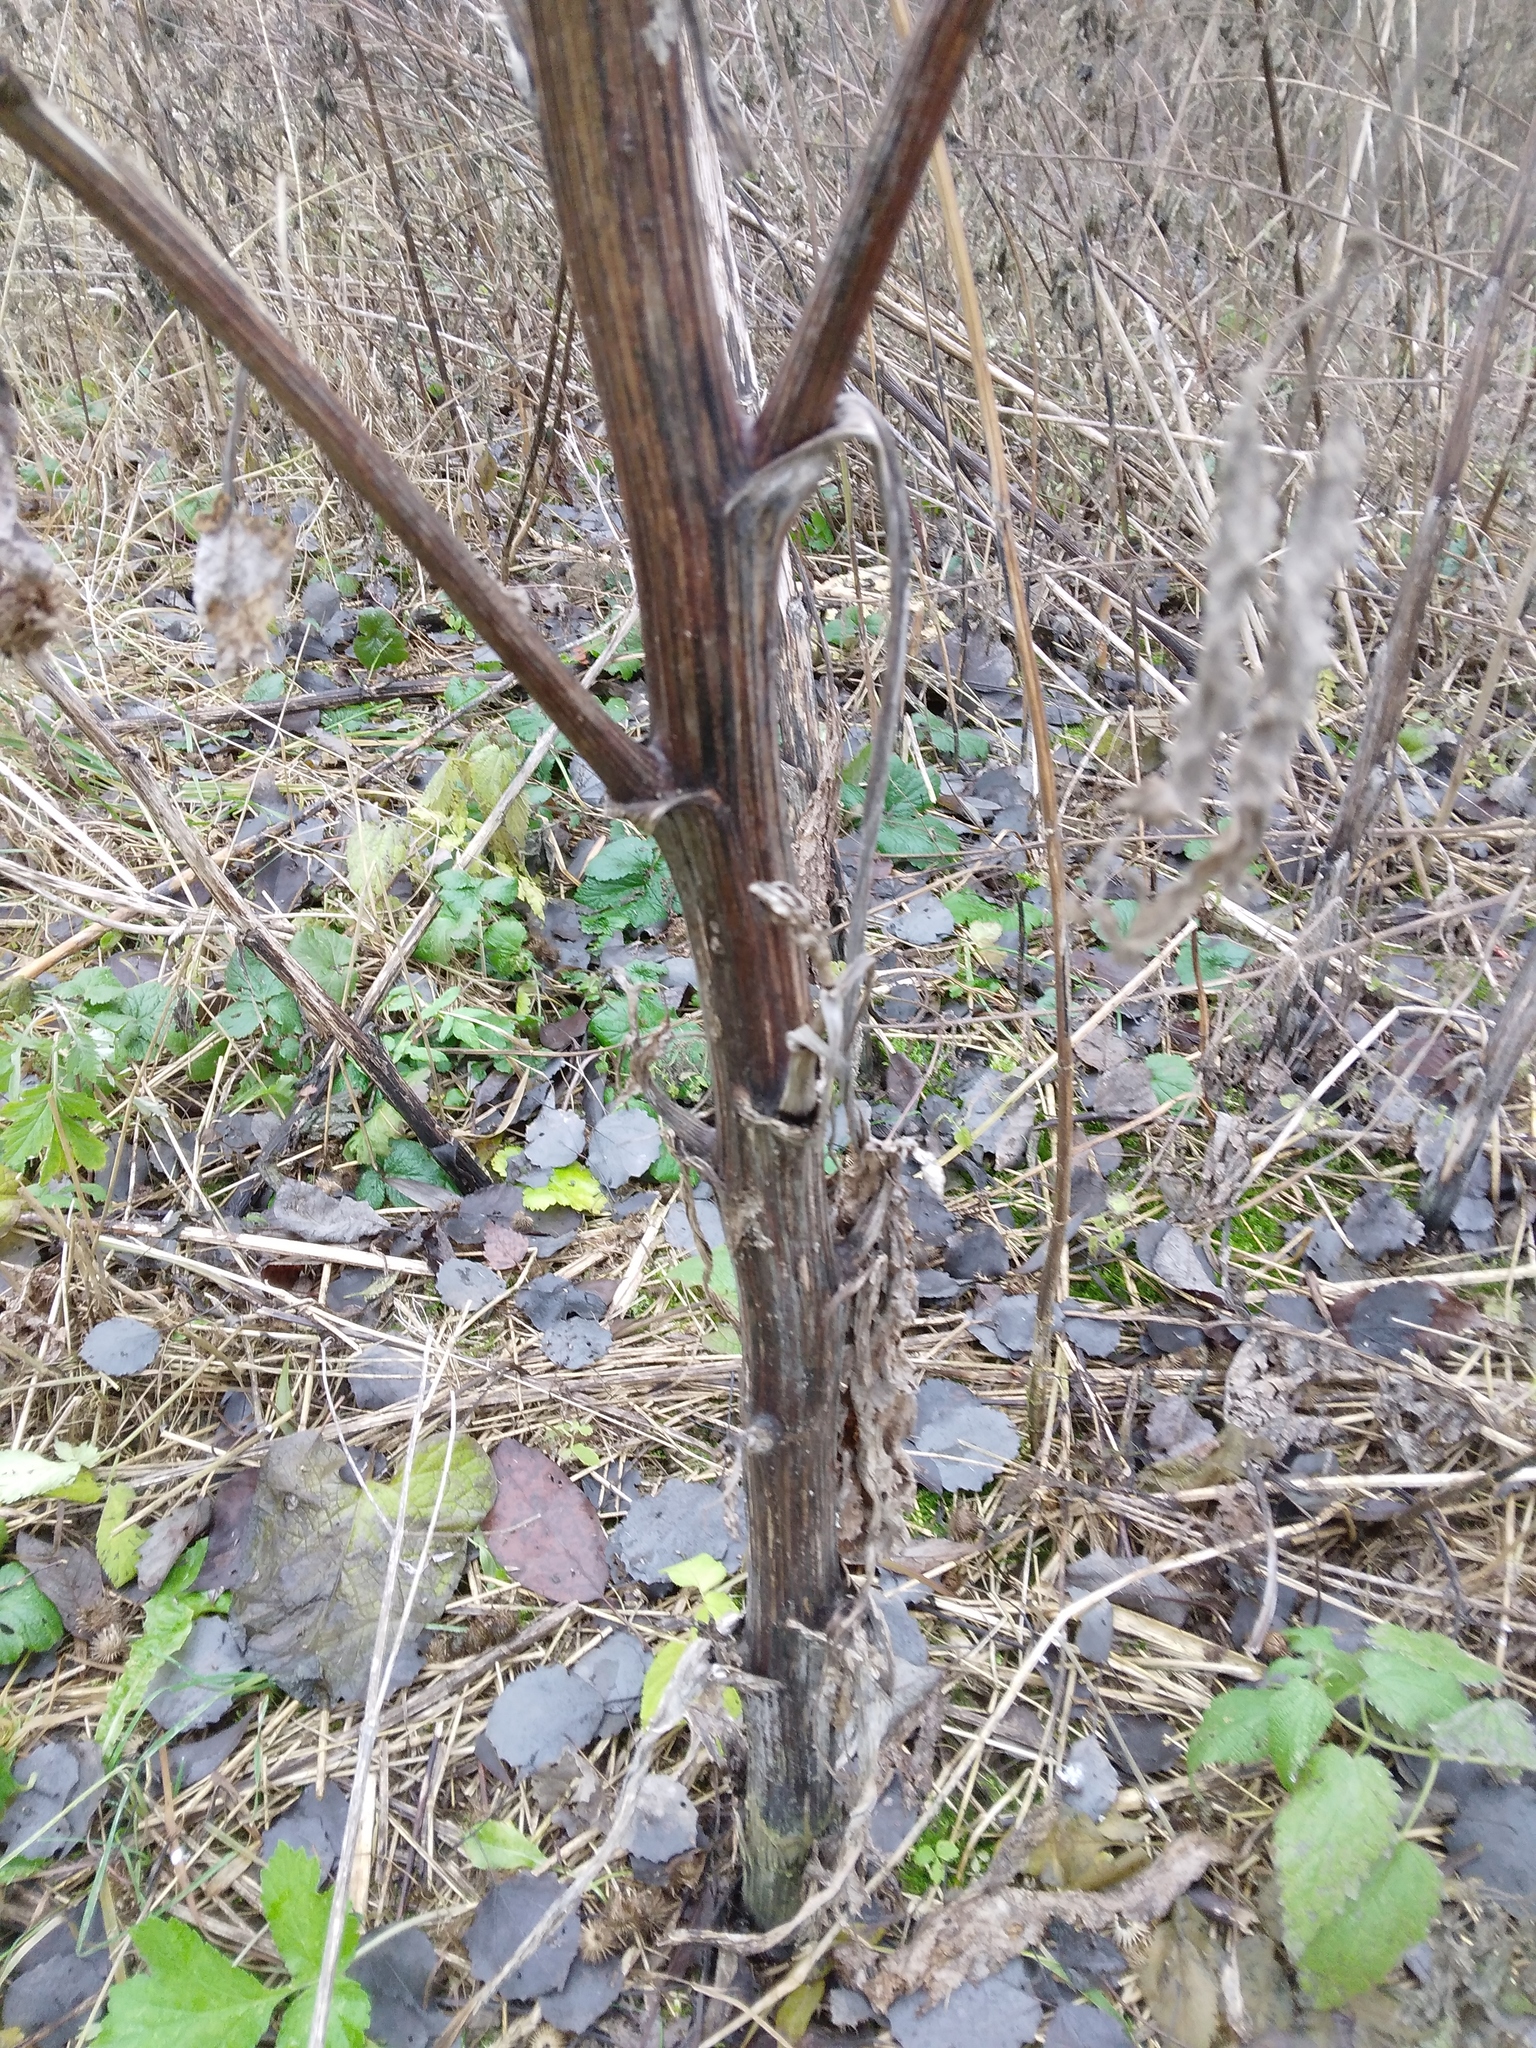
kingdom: Plantae
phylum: Tracheophyta
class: Magnoliopsida
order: Asterales
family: Asteraceae
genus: Arctium
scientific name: Arctium tomentosum
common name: Woolly burdock
